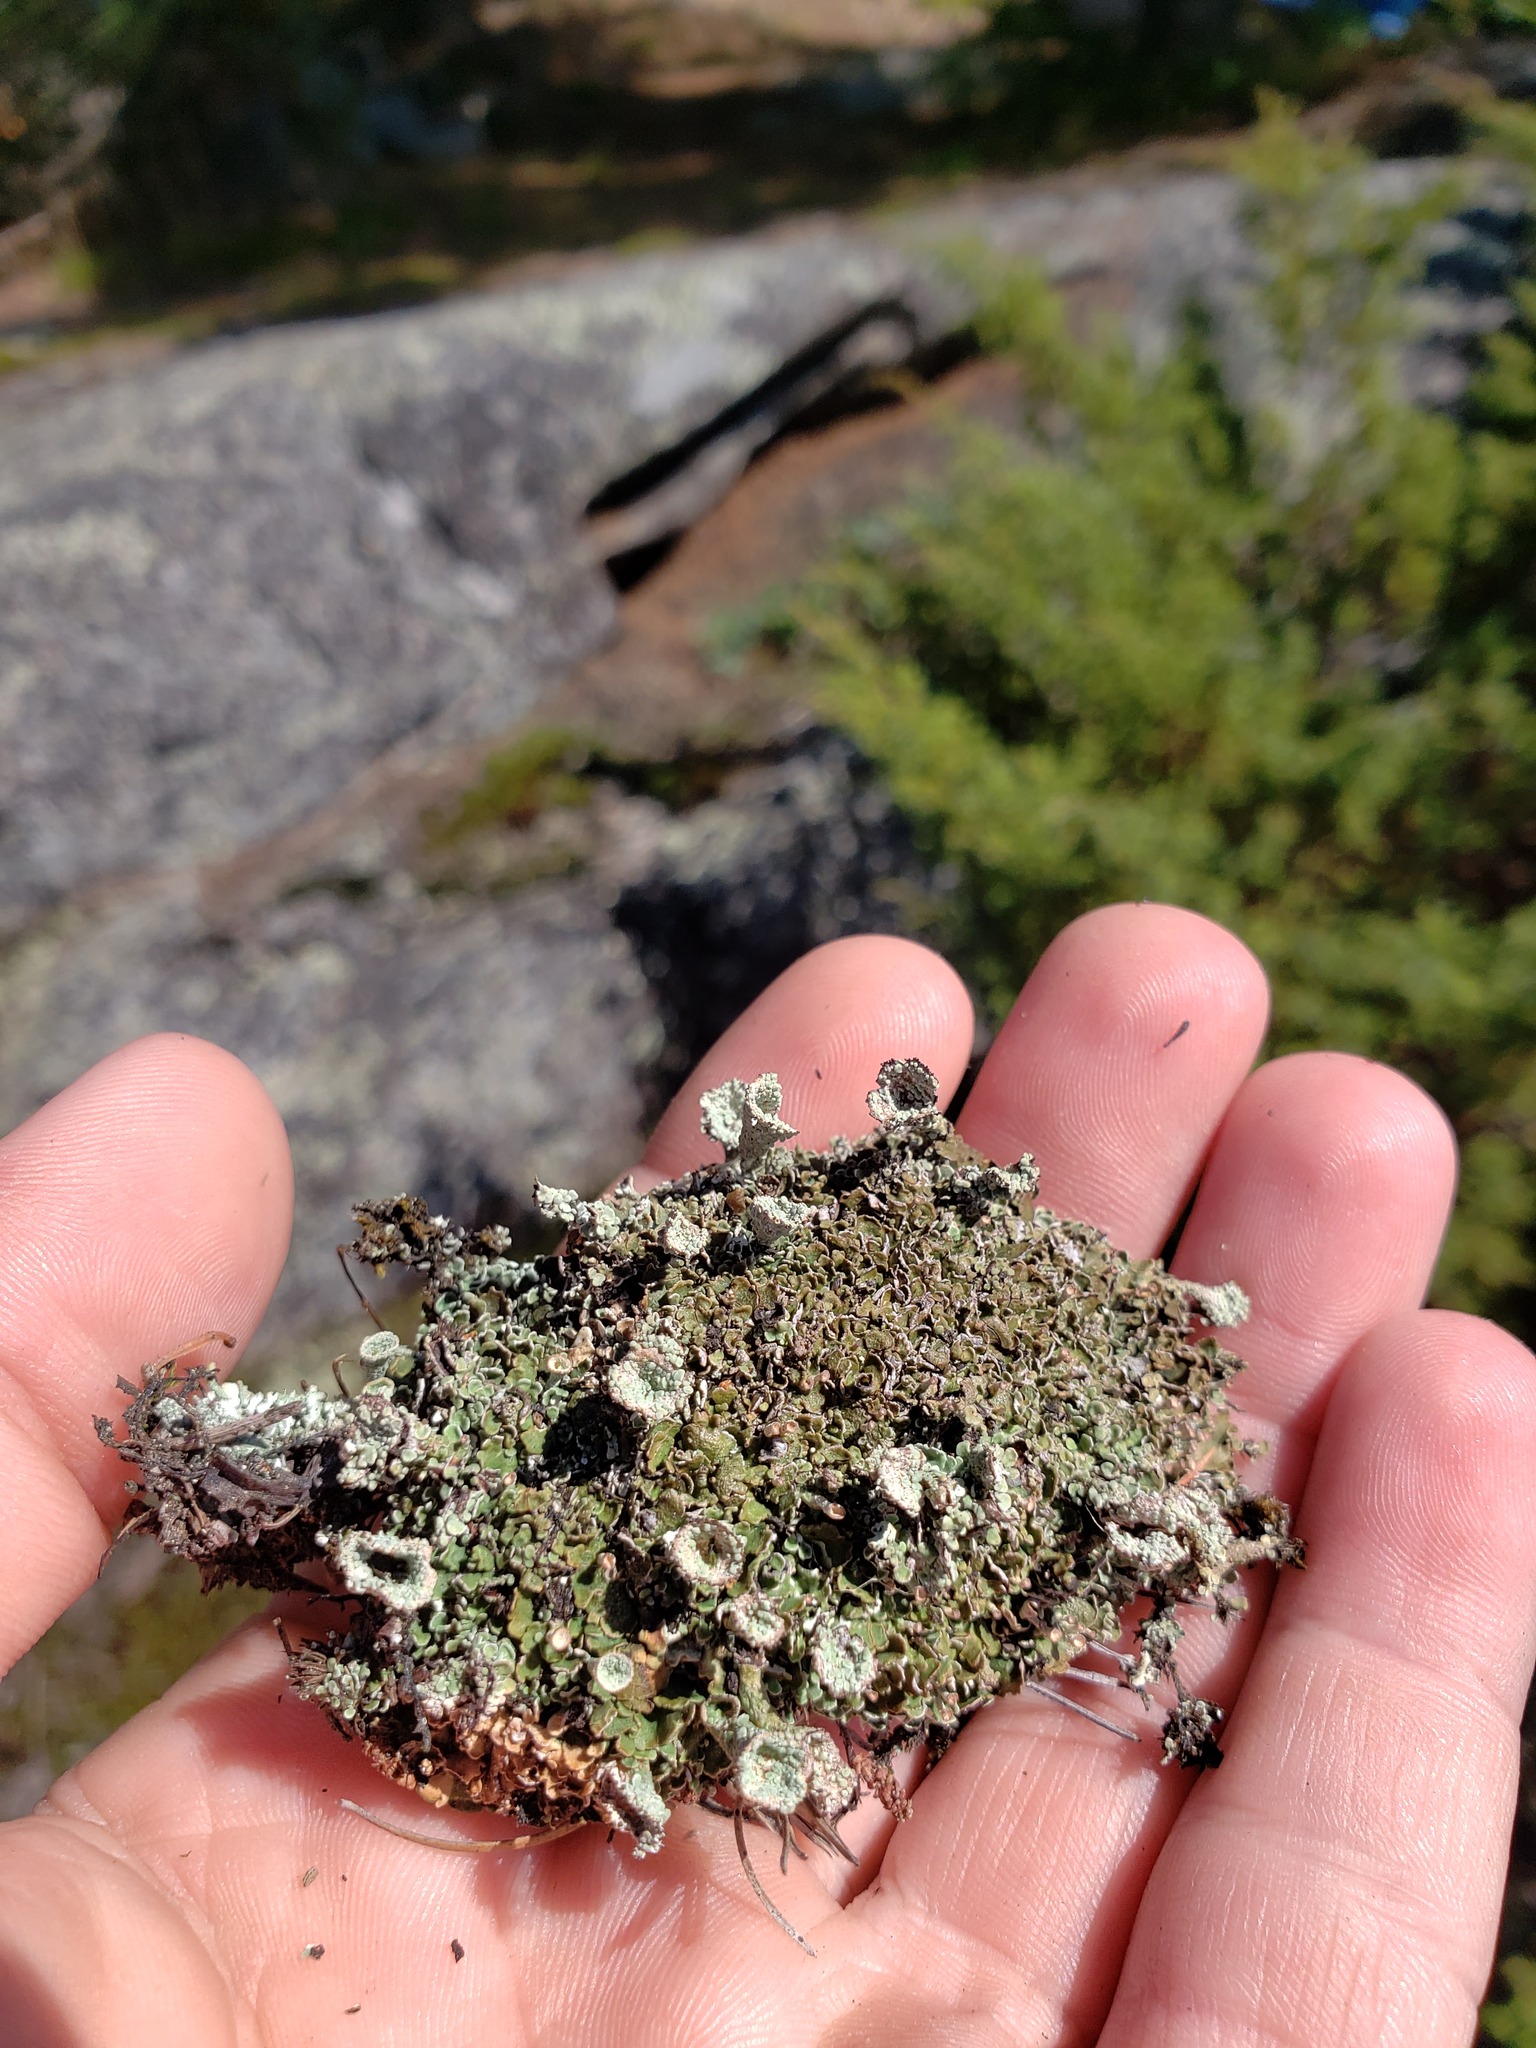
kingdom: Fungi
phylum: Ascomycota
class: Lecanoromycetes
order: Lecanorales
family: Cladoniaceae
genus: Cladonia
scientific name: Cladonia pyxidata
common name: Pebbled pixie cup
